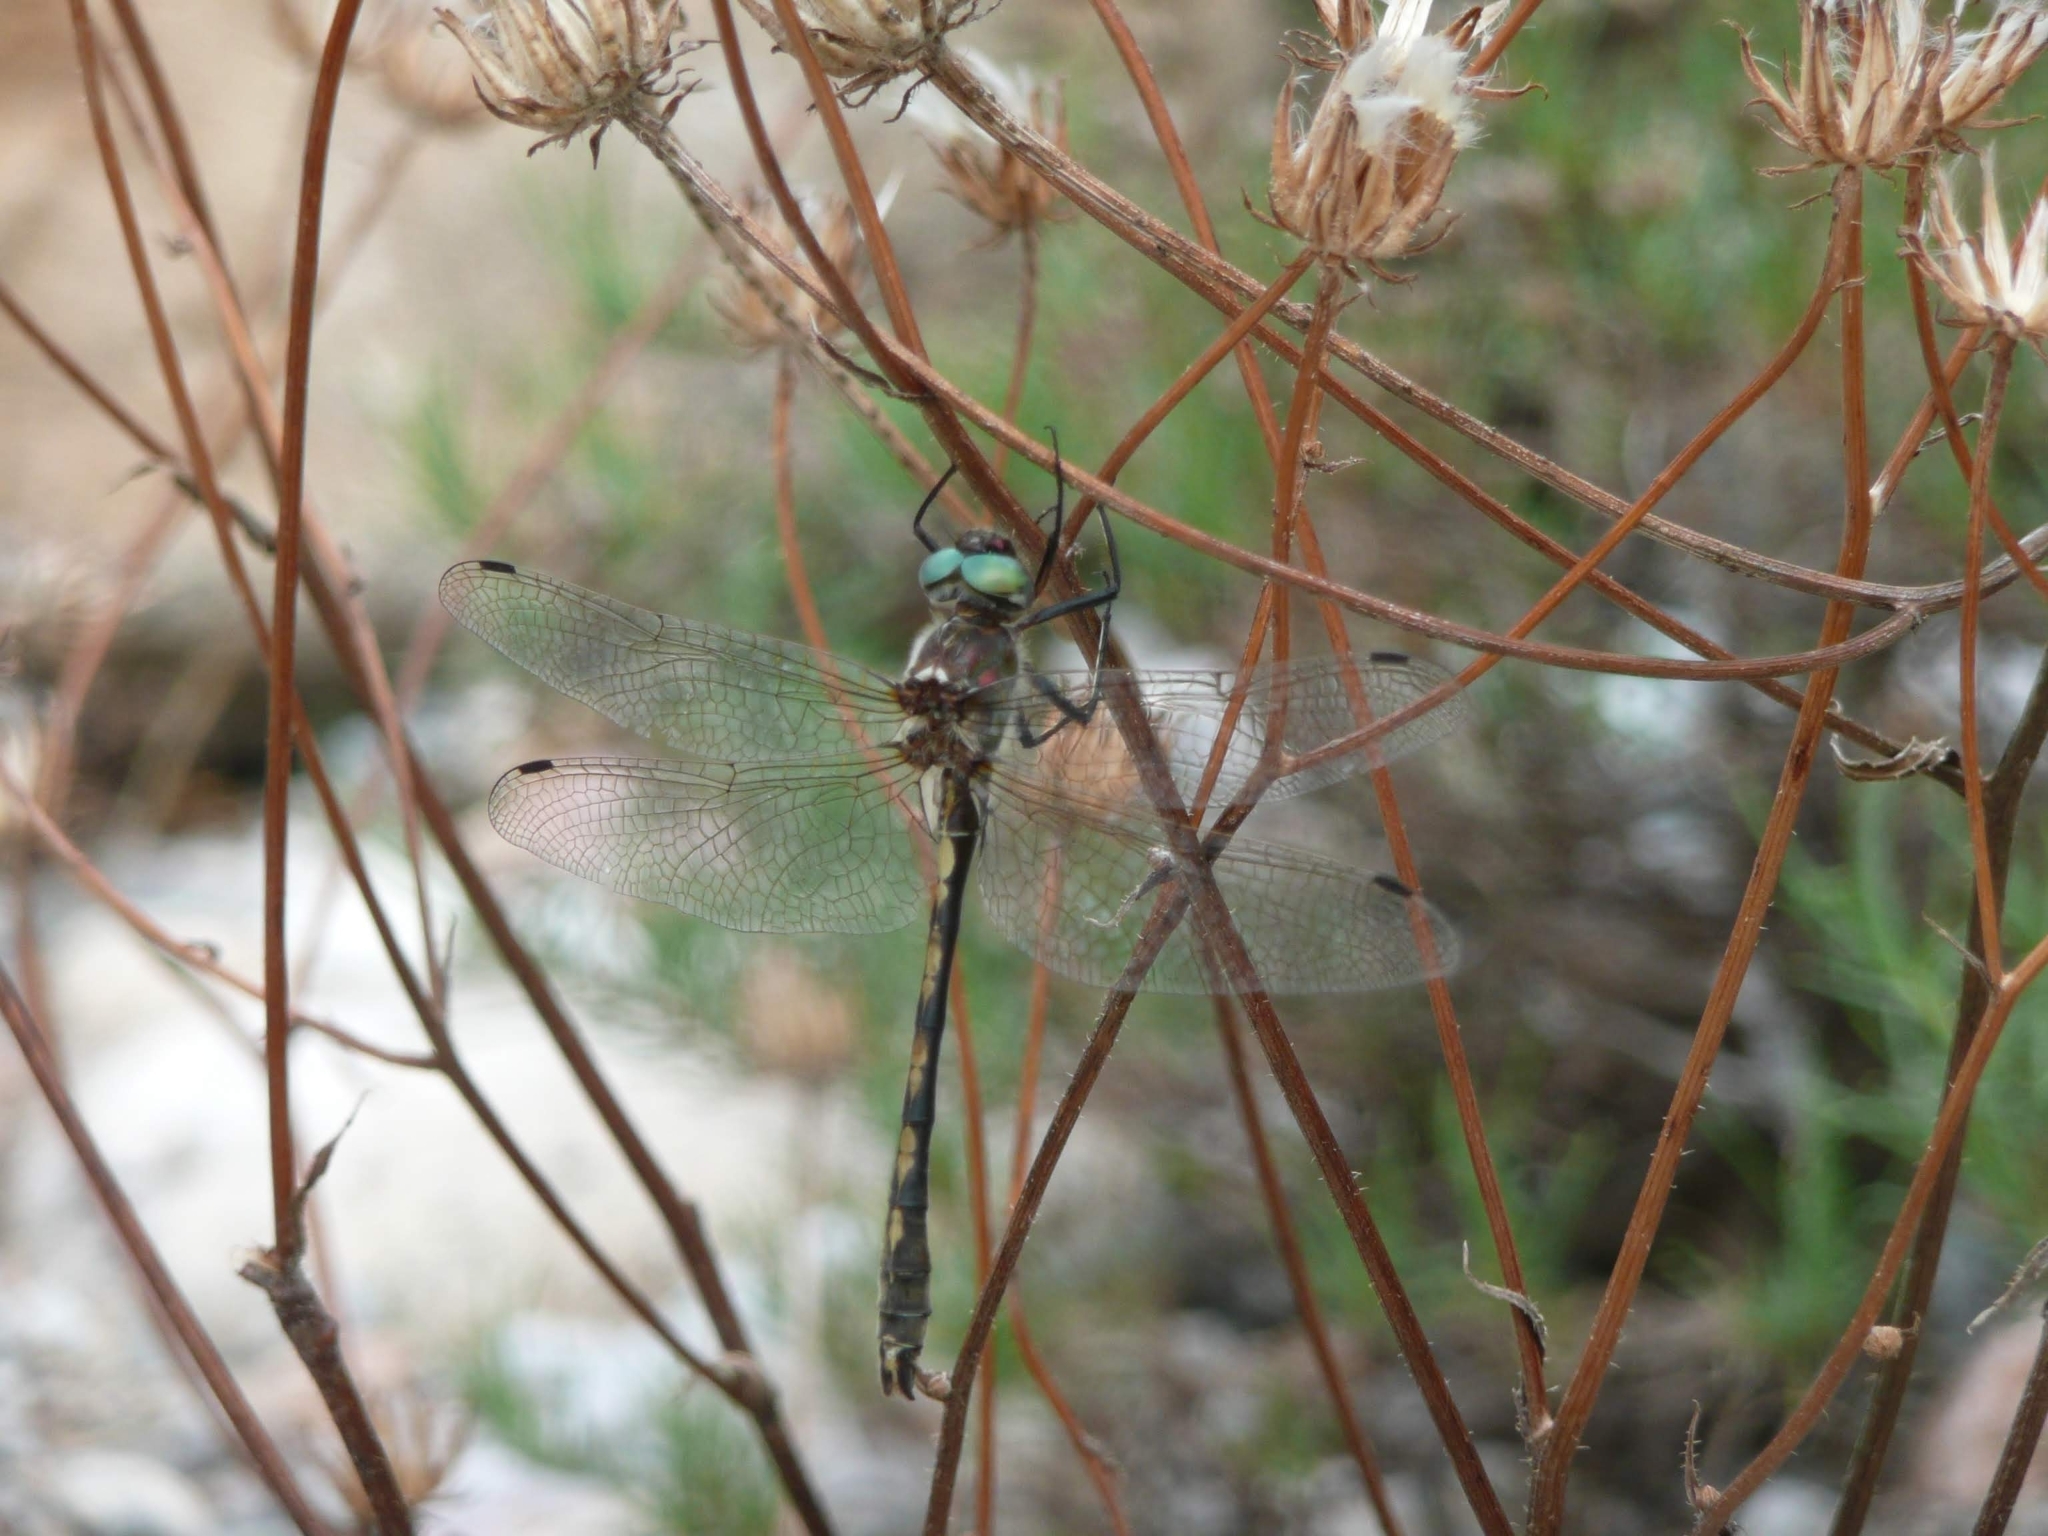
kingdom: Animalia
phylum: Arthropoda
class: Insecta
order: Odonata
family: Corduliidae
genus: Oxygastra
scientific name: Oxygastra curtisii
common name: Orange-spotted emerald
